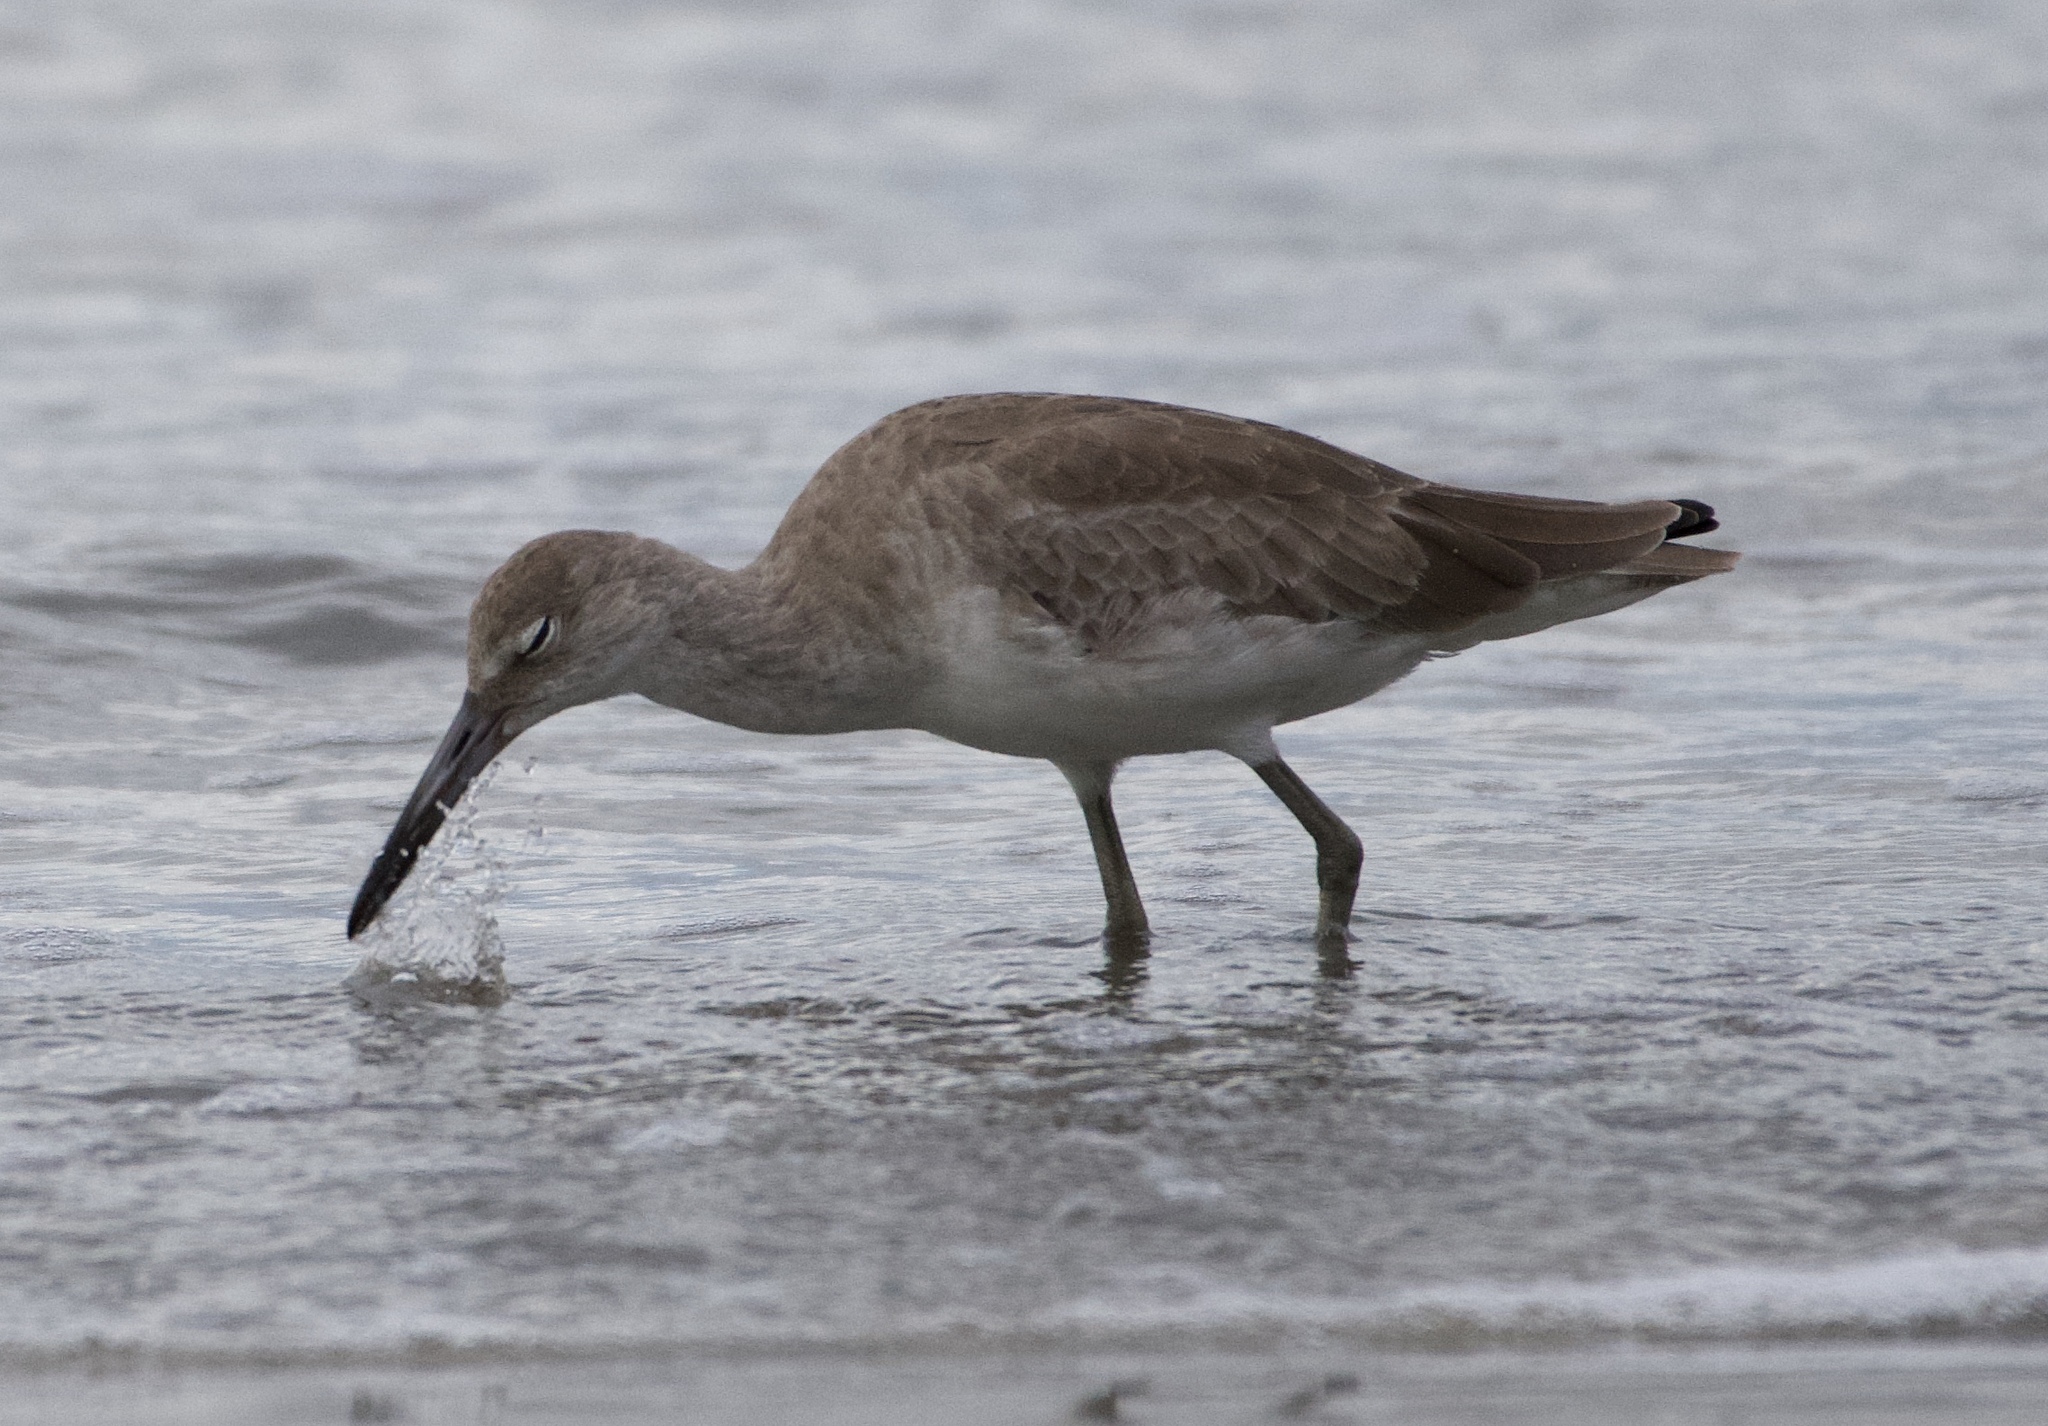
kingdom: Animalia
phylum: Chordata
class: Aves
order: Charadriiformes
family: Scolopacidae
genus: Tringa
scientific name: Tringa semipalmata
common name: Willet
